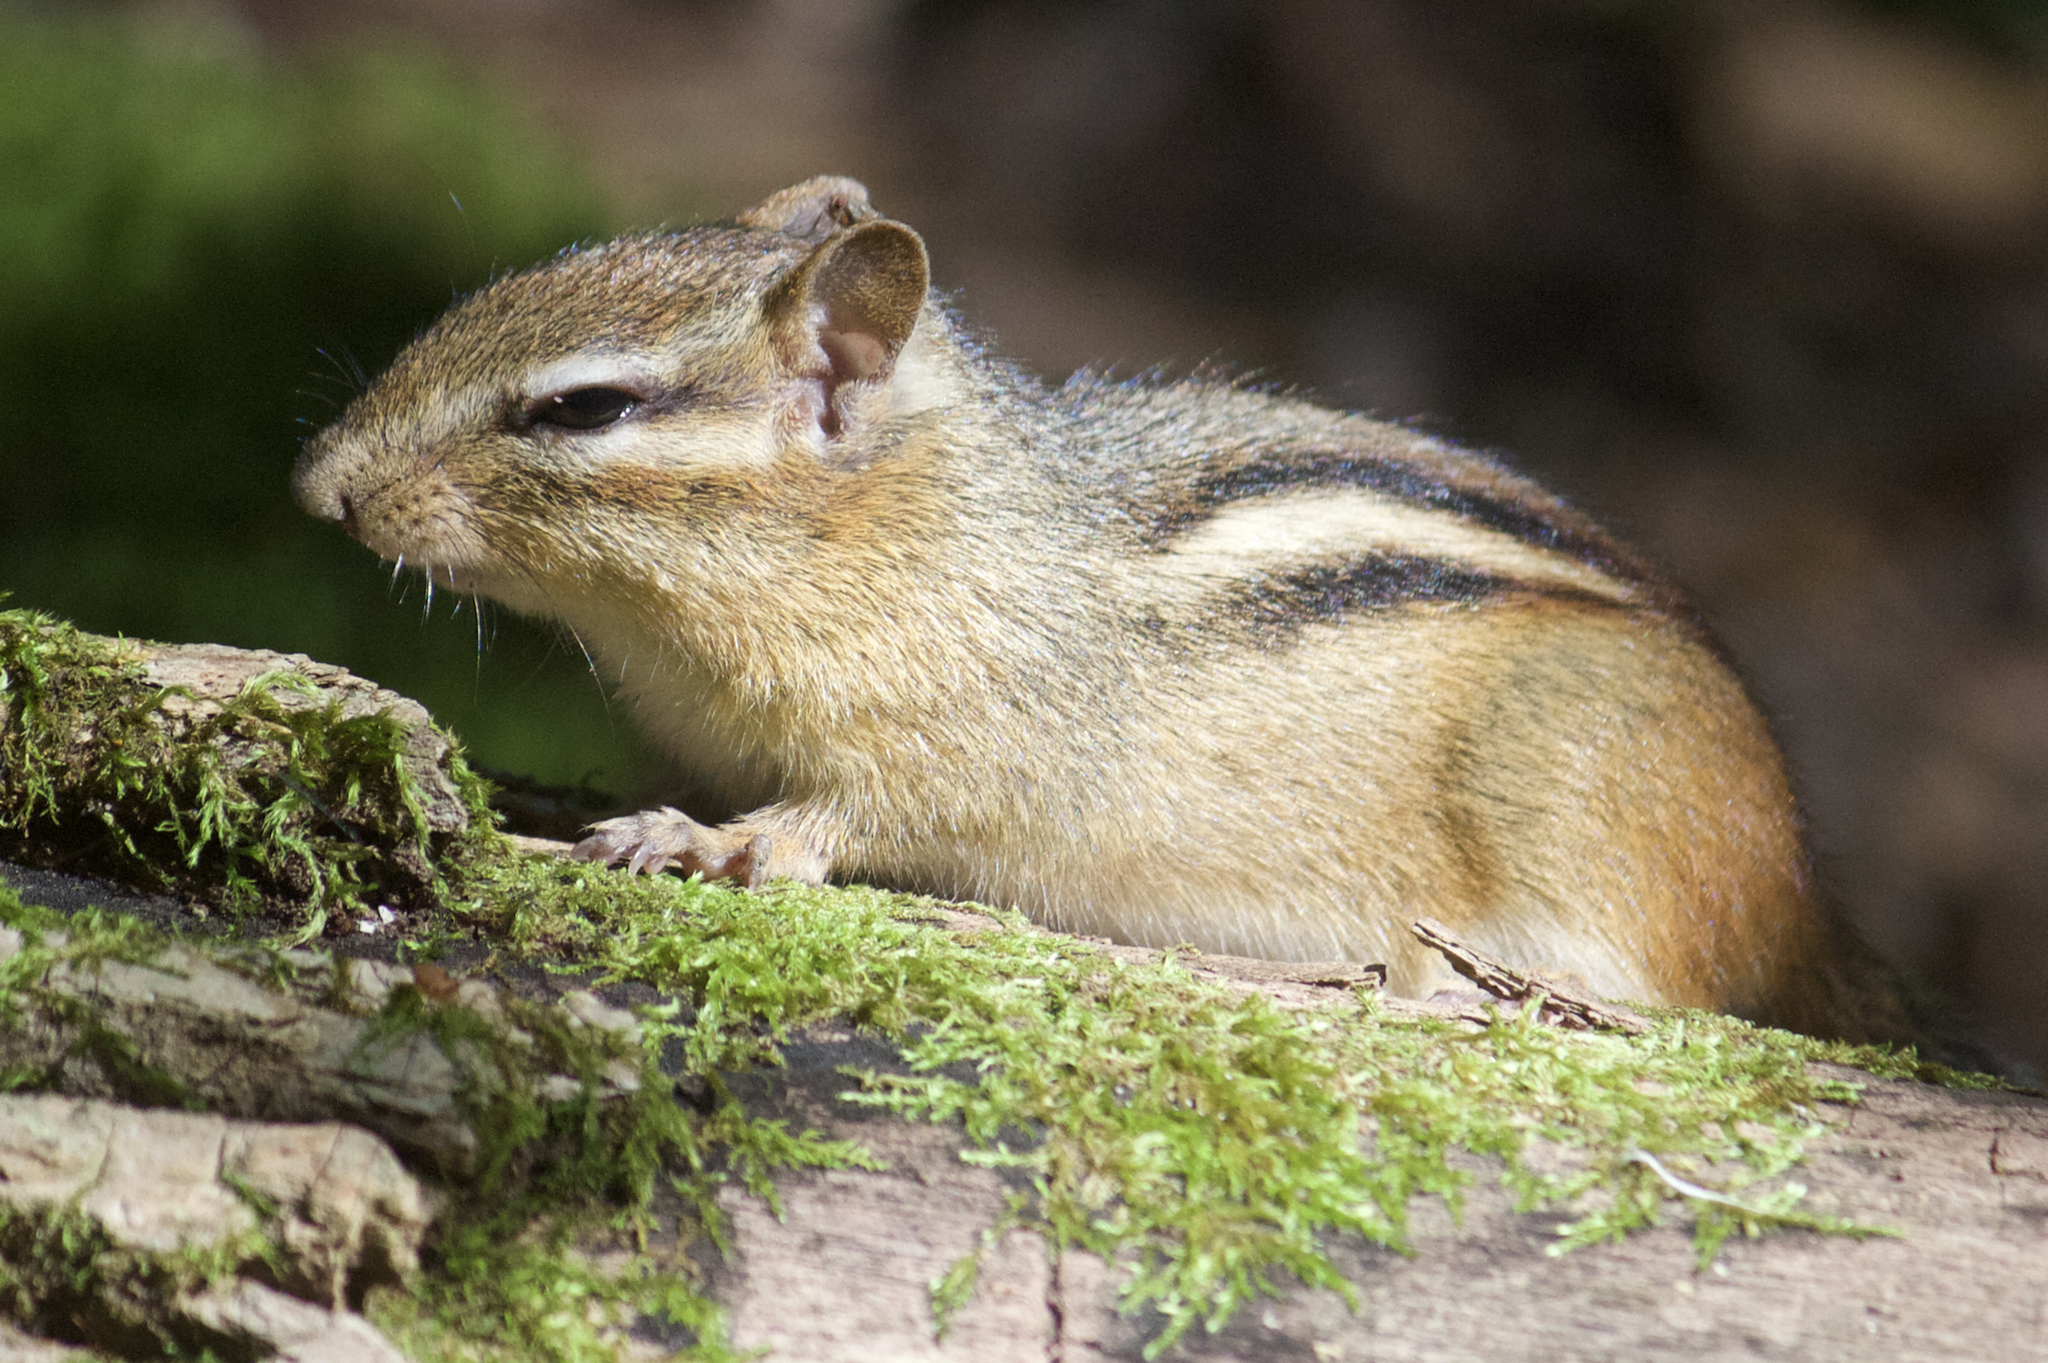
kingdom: Animalia
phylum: Chordata
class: Mammalia
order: Rodentia
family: Sciuridae
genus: Tamias
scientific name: Tamias striatus
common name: Eastern chipmunk
